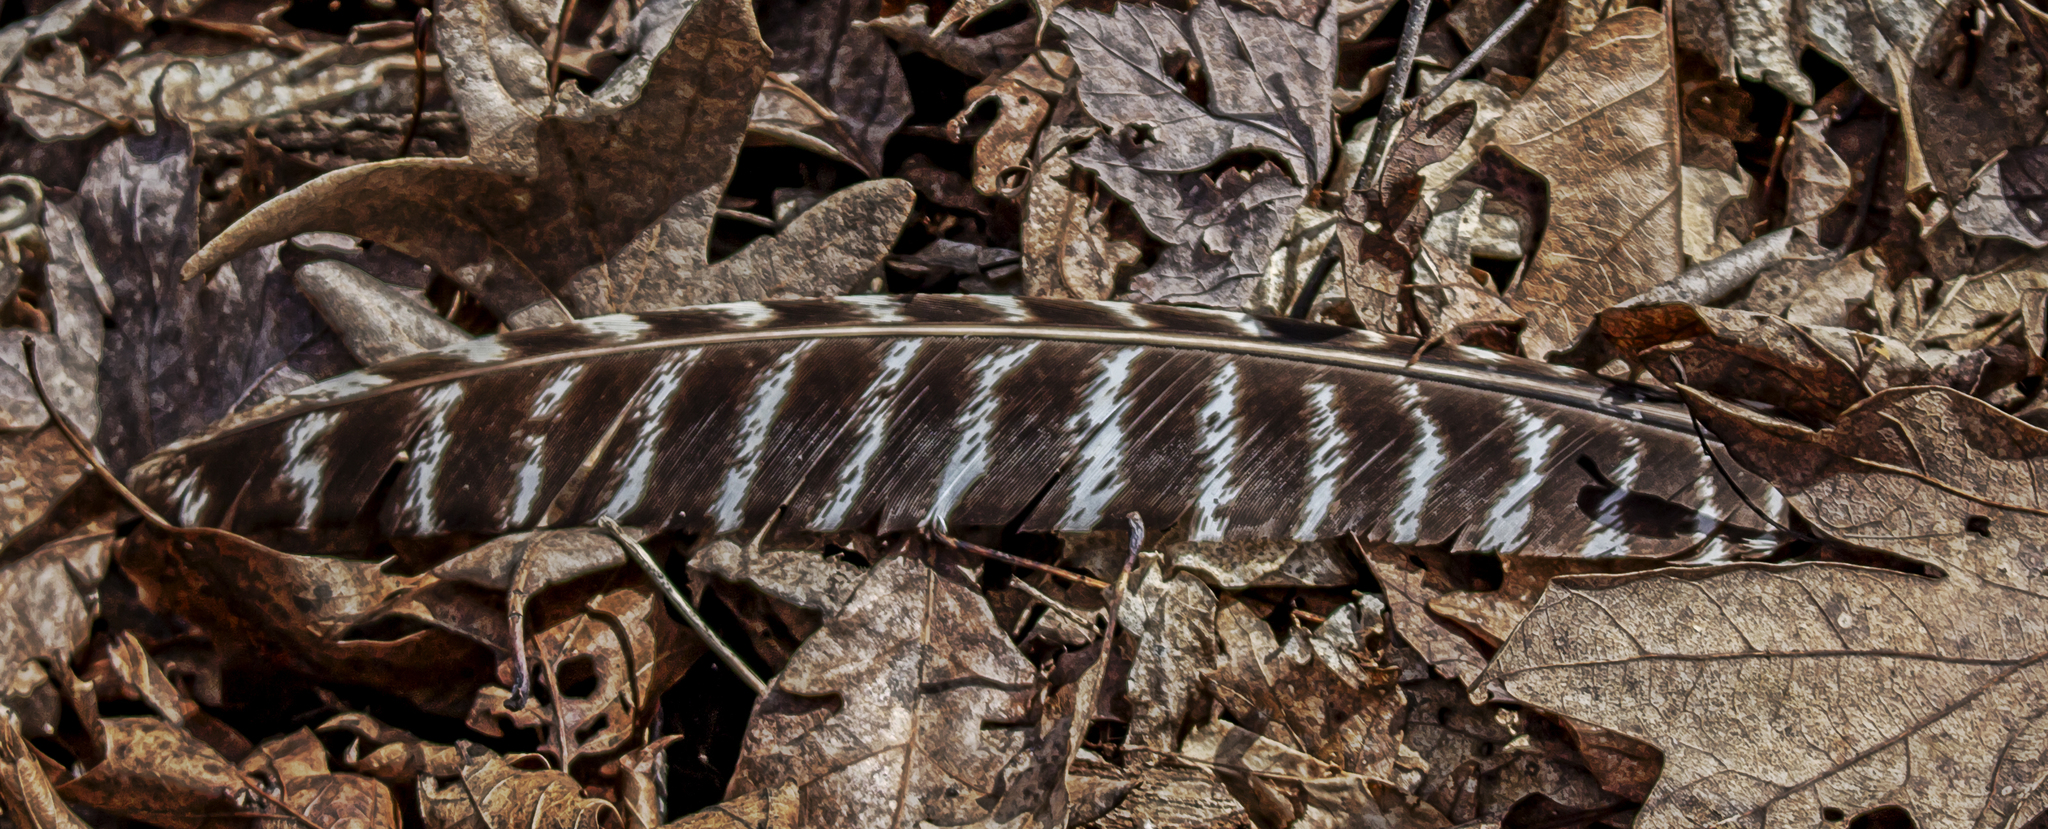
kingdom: Animalia
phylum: Chordata
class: Aves
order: Galliformes
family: Phasianidae
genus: Meleagris
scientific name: Meleagris gallopavo
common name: Wild turkey
